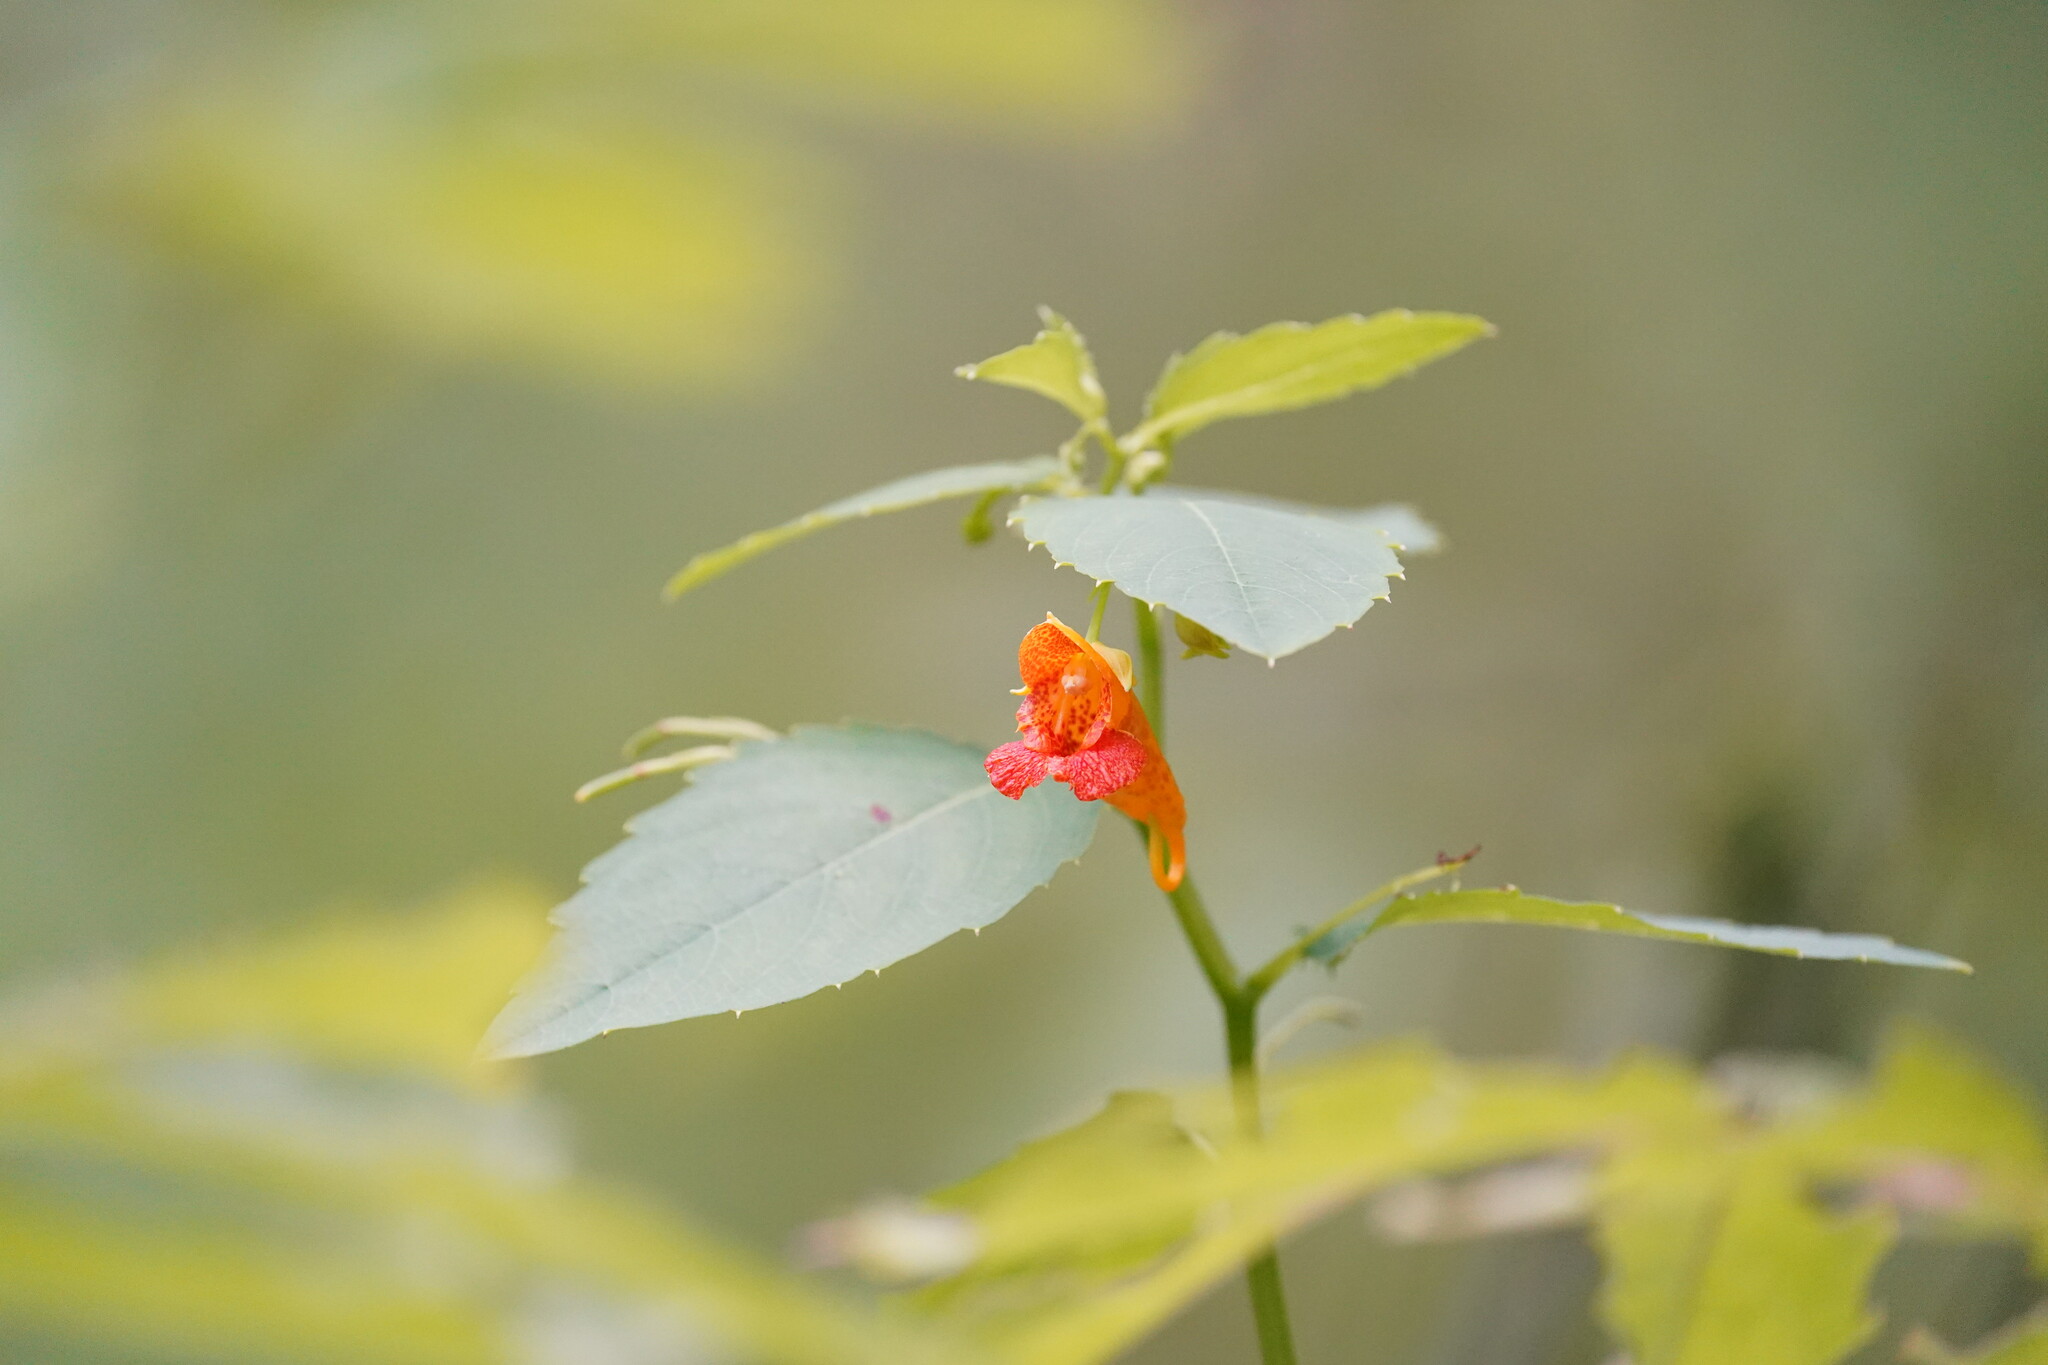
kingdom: Plantae
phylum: Tracheophyta
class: Magnoliopsida
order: Ericales
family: Balsaminaceae
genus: Impatiens
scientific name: Impatiens capensis
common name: Orange balsam
